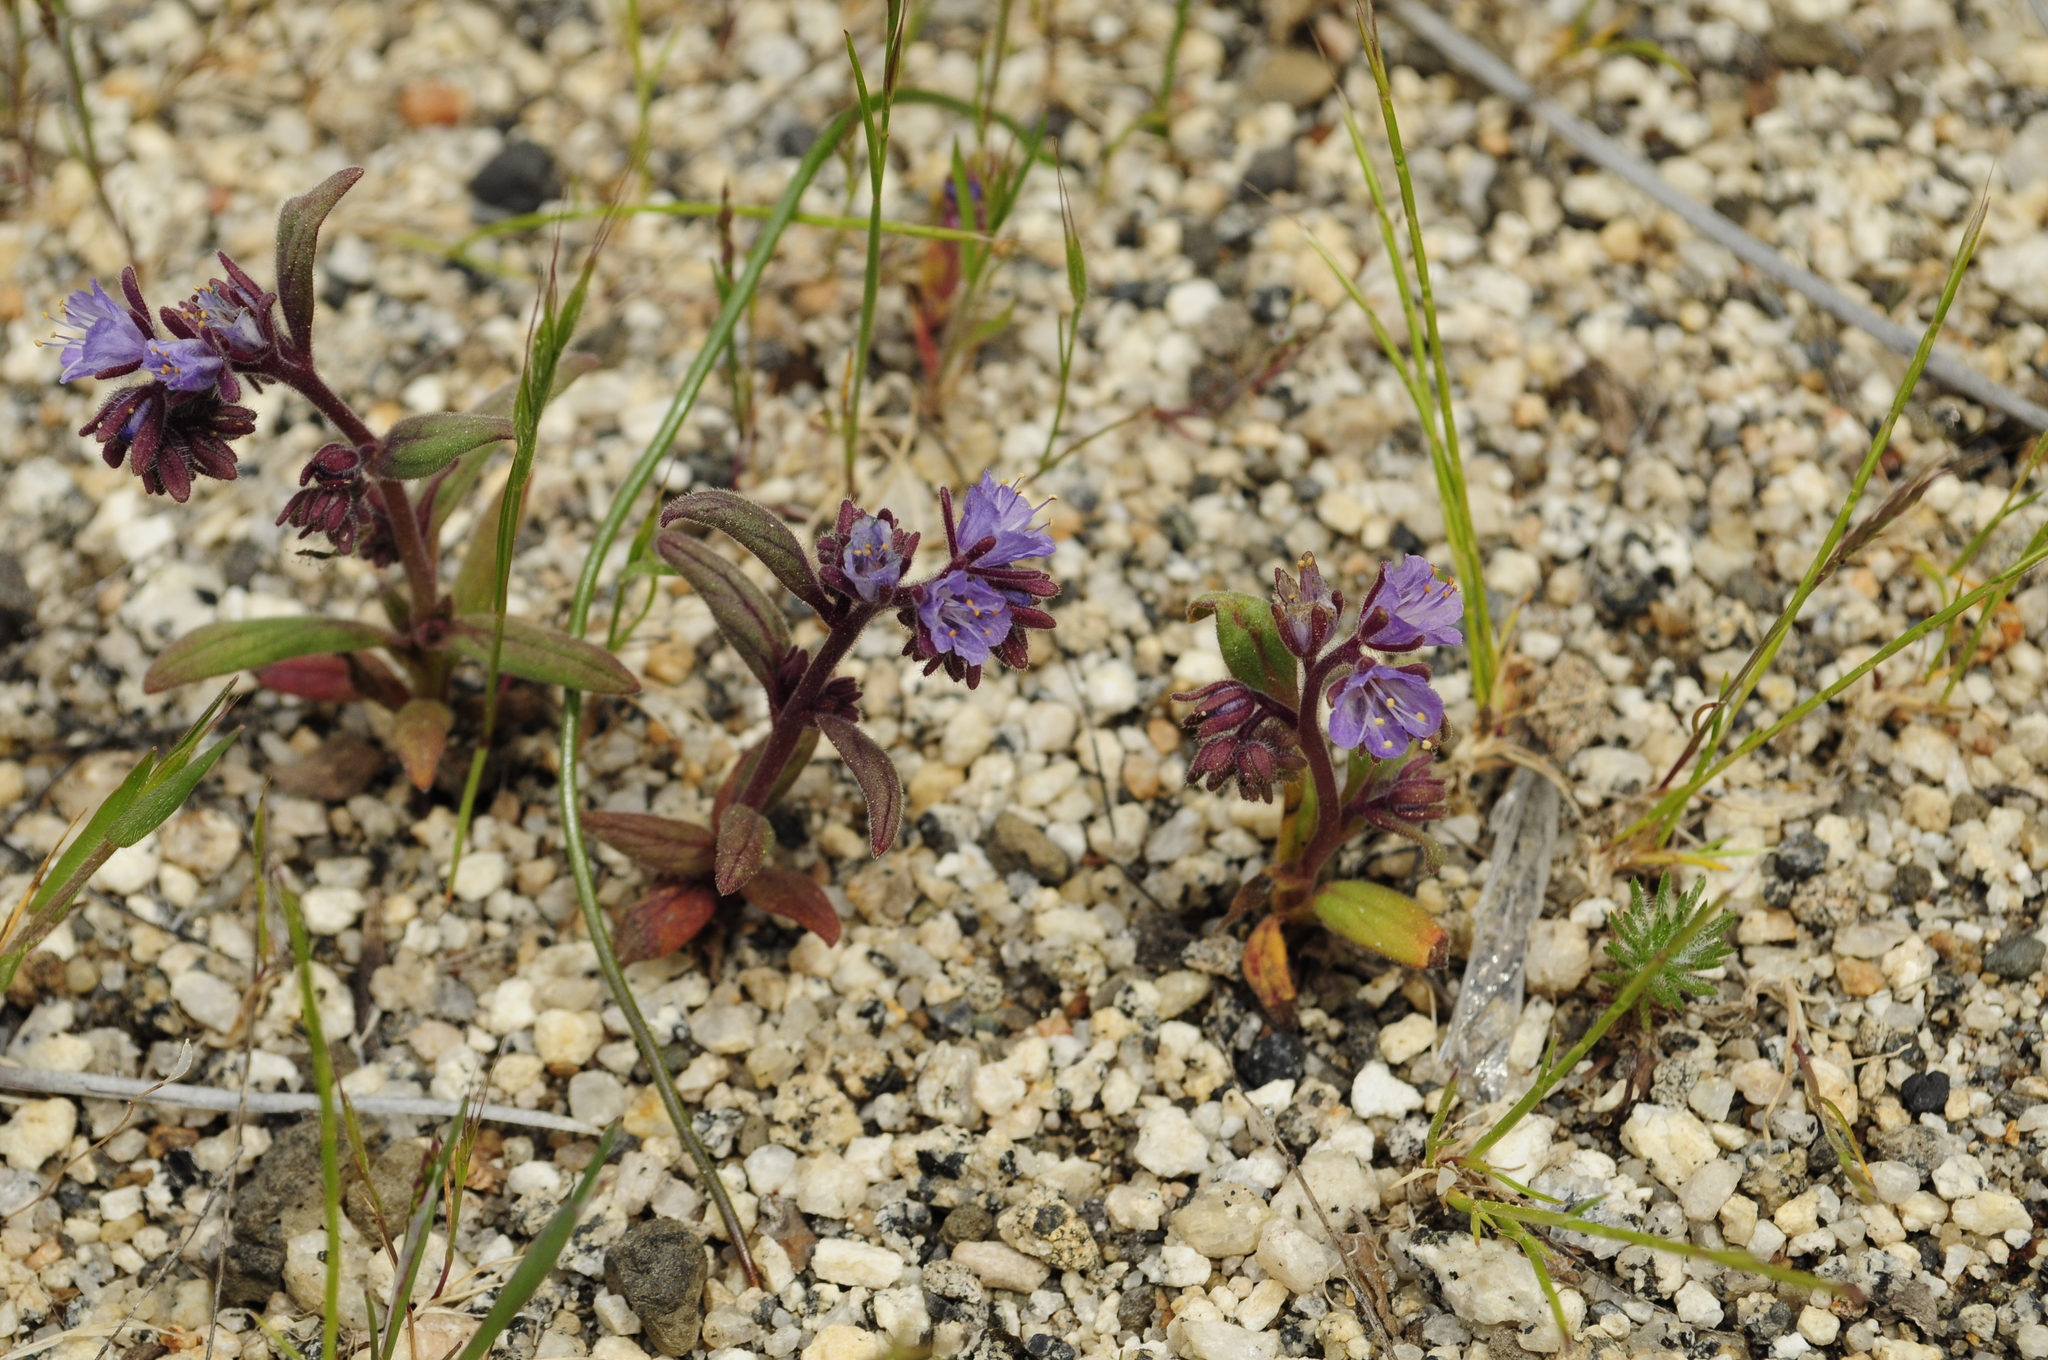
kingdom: Plantae
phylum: Tracheophyta
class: Magnoliopsida
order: Boraginales
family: Hydrophyllaceae
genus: Phacelia
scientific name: Phacelia quickii
